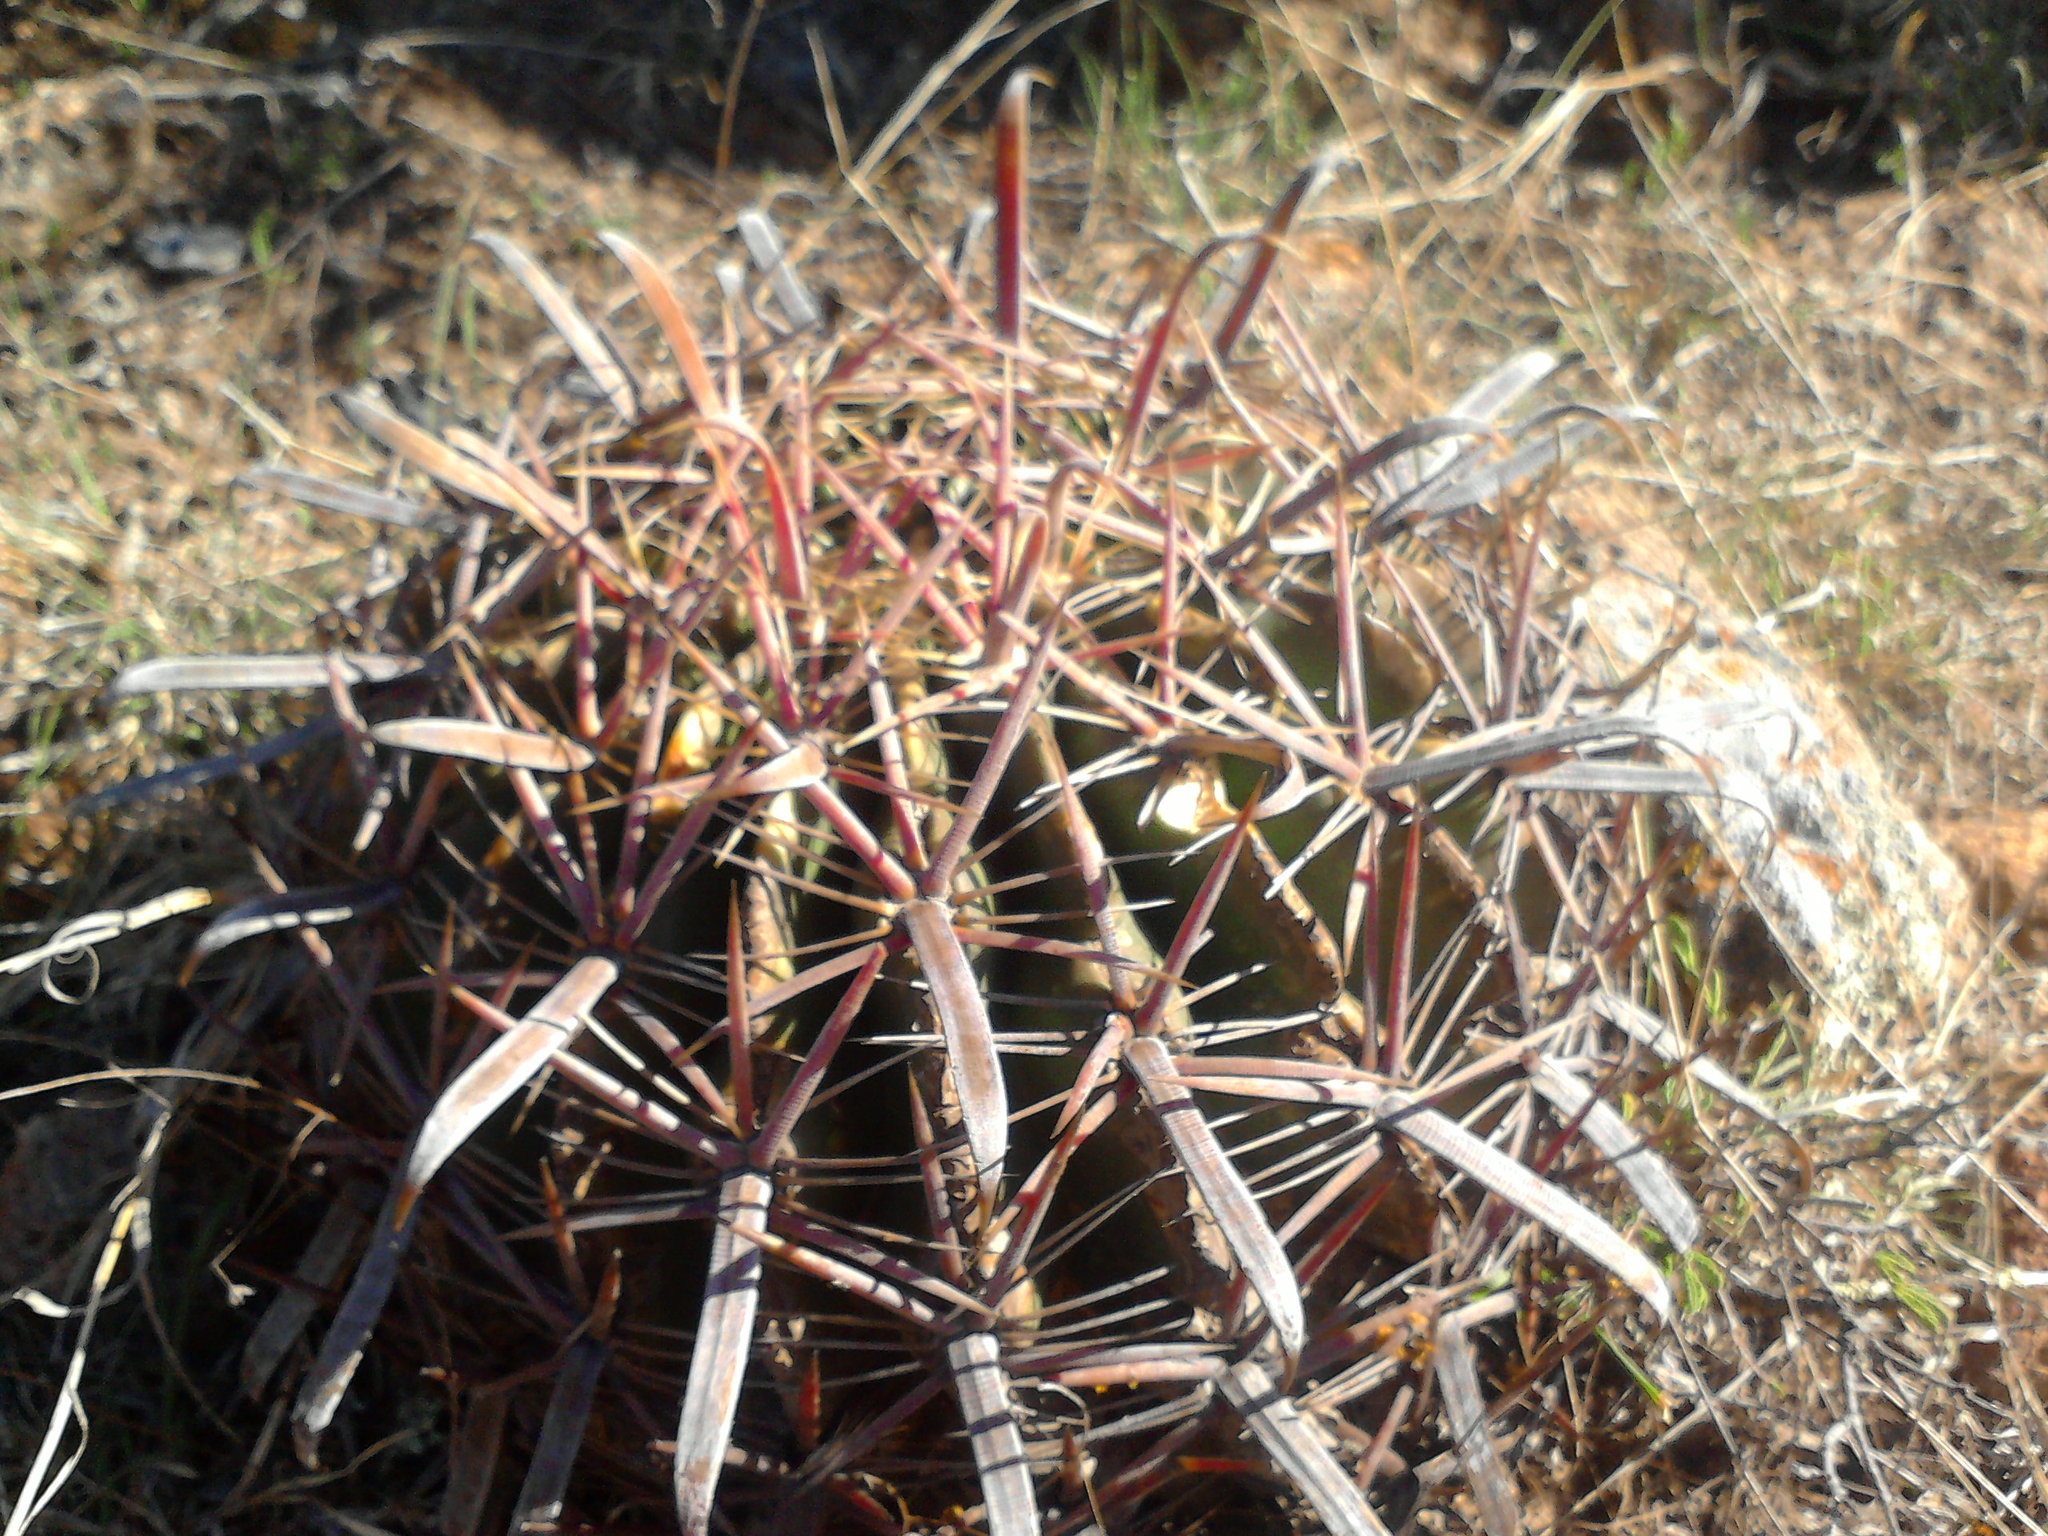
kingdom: Plantae
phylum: Tracheophyta
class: Magnoliopsida
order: Caryophyllales
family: Cactaceae
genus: Ferocactus
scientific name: Ferocactus latispinus
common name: Devil's-tongue cactus
